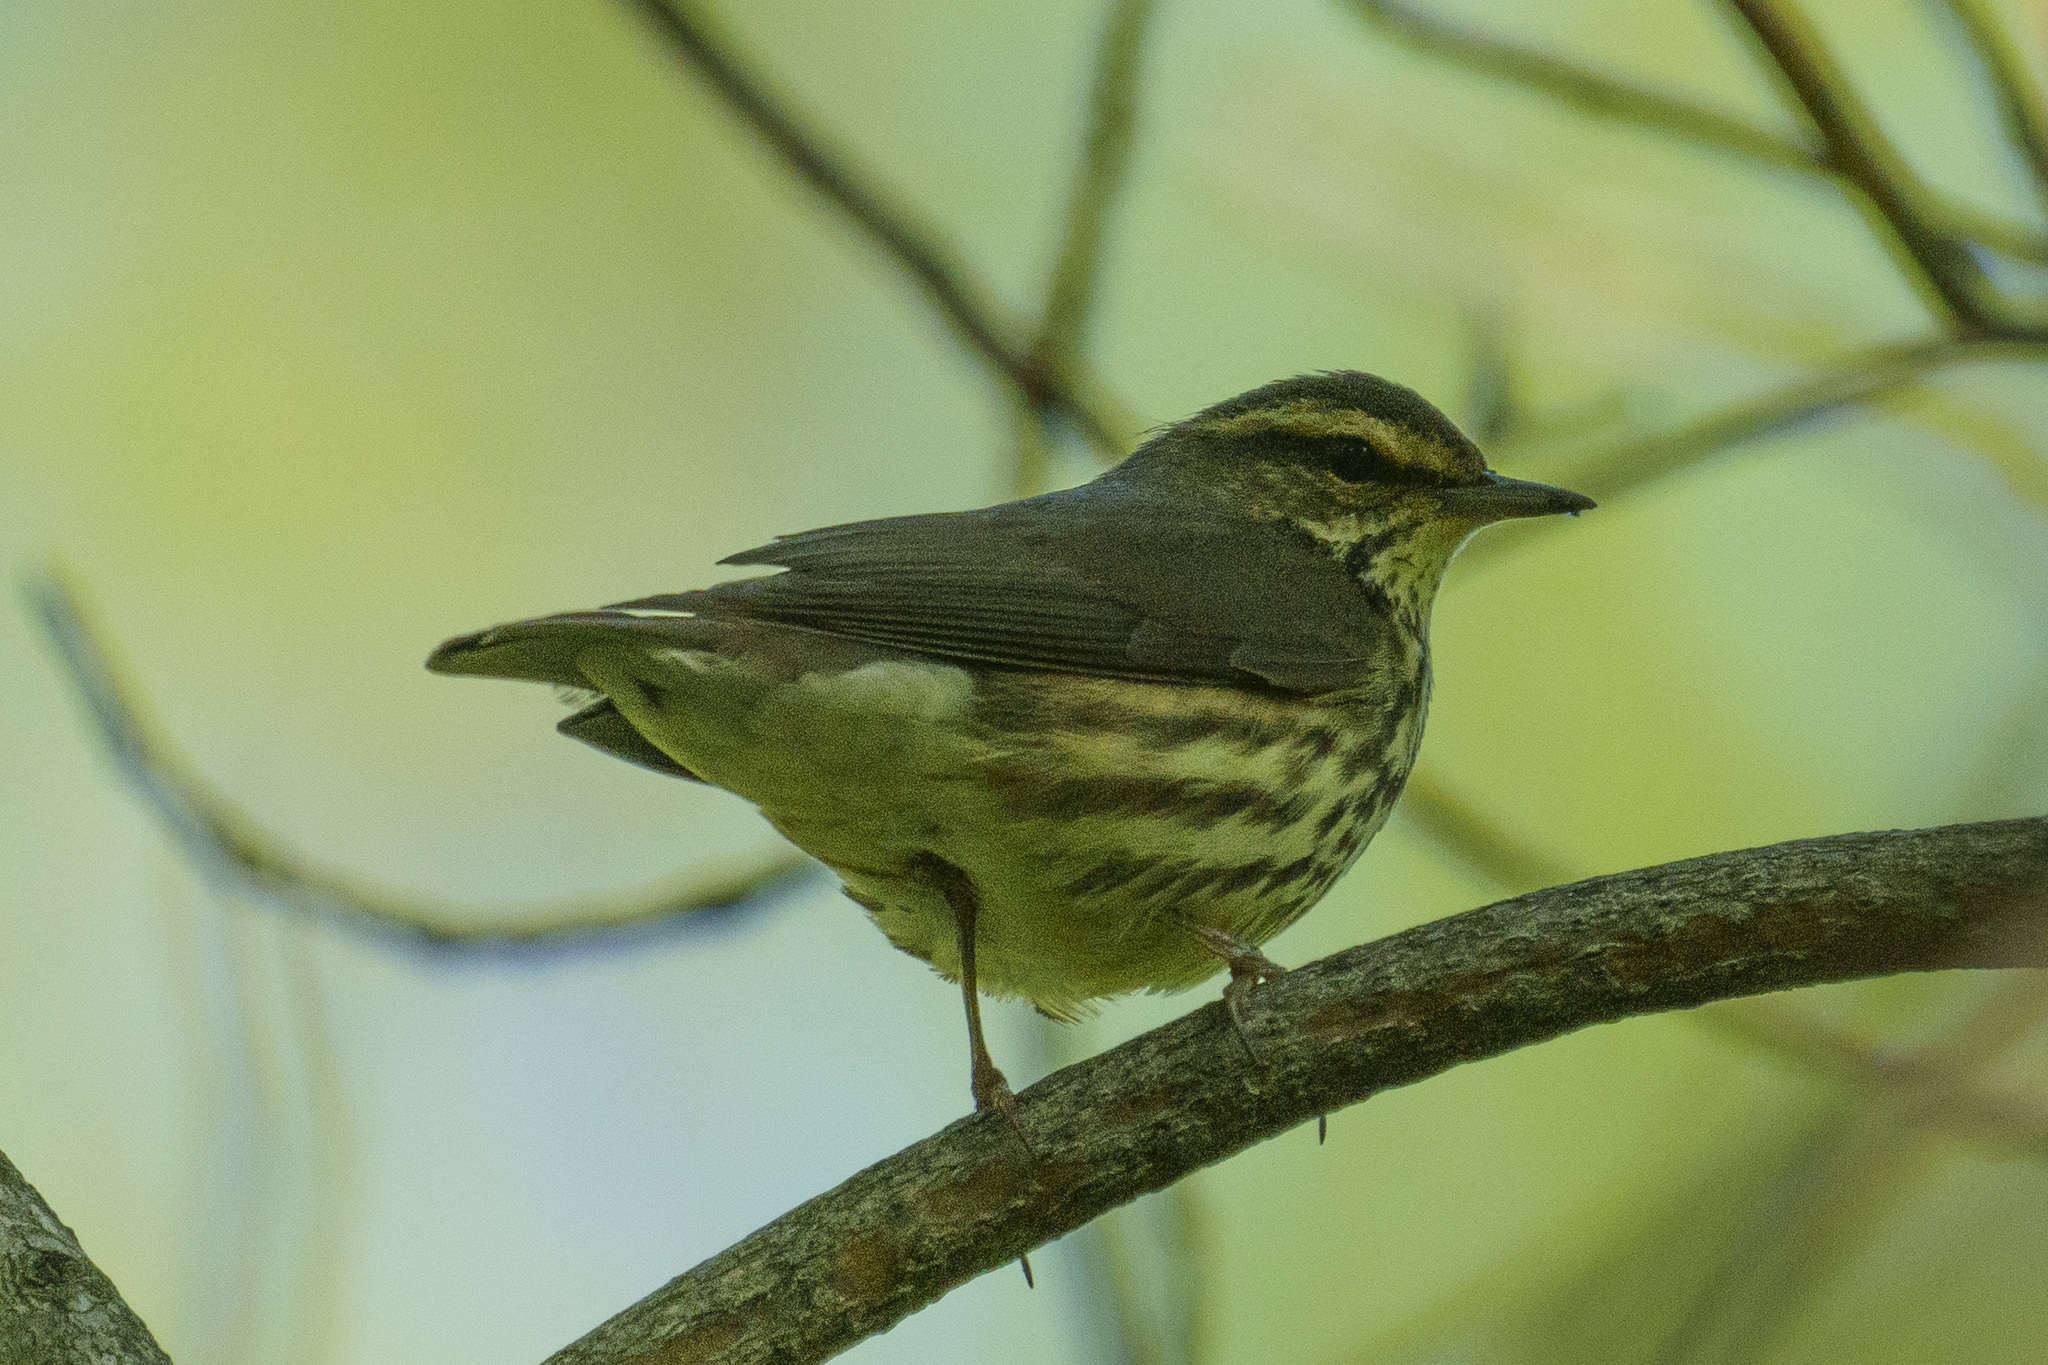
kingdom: Animalia
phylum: Chordata
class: Aves
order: Passeriformes
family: Parulidae
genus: Parkesia
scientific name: Parkesia noveboracensis
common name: Northern waterthrush
